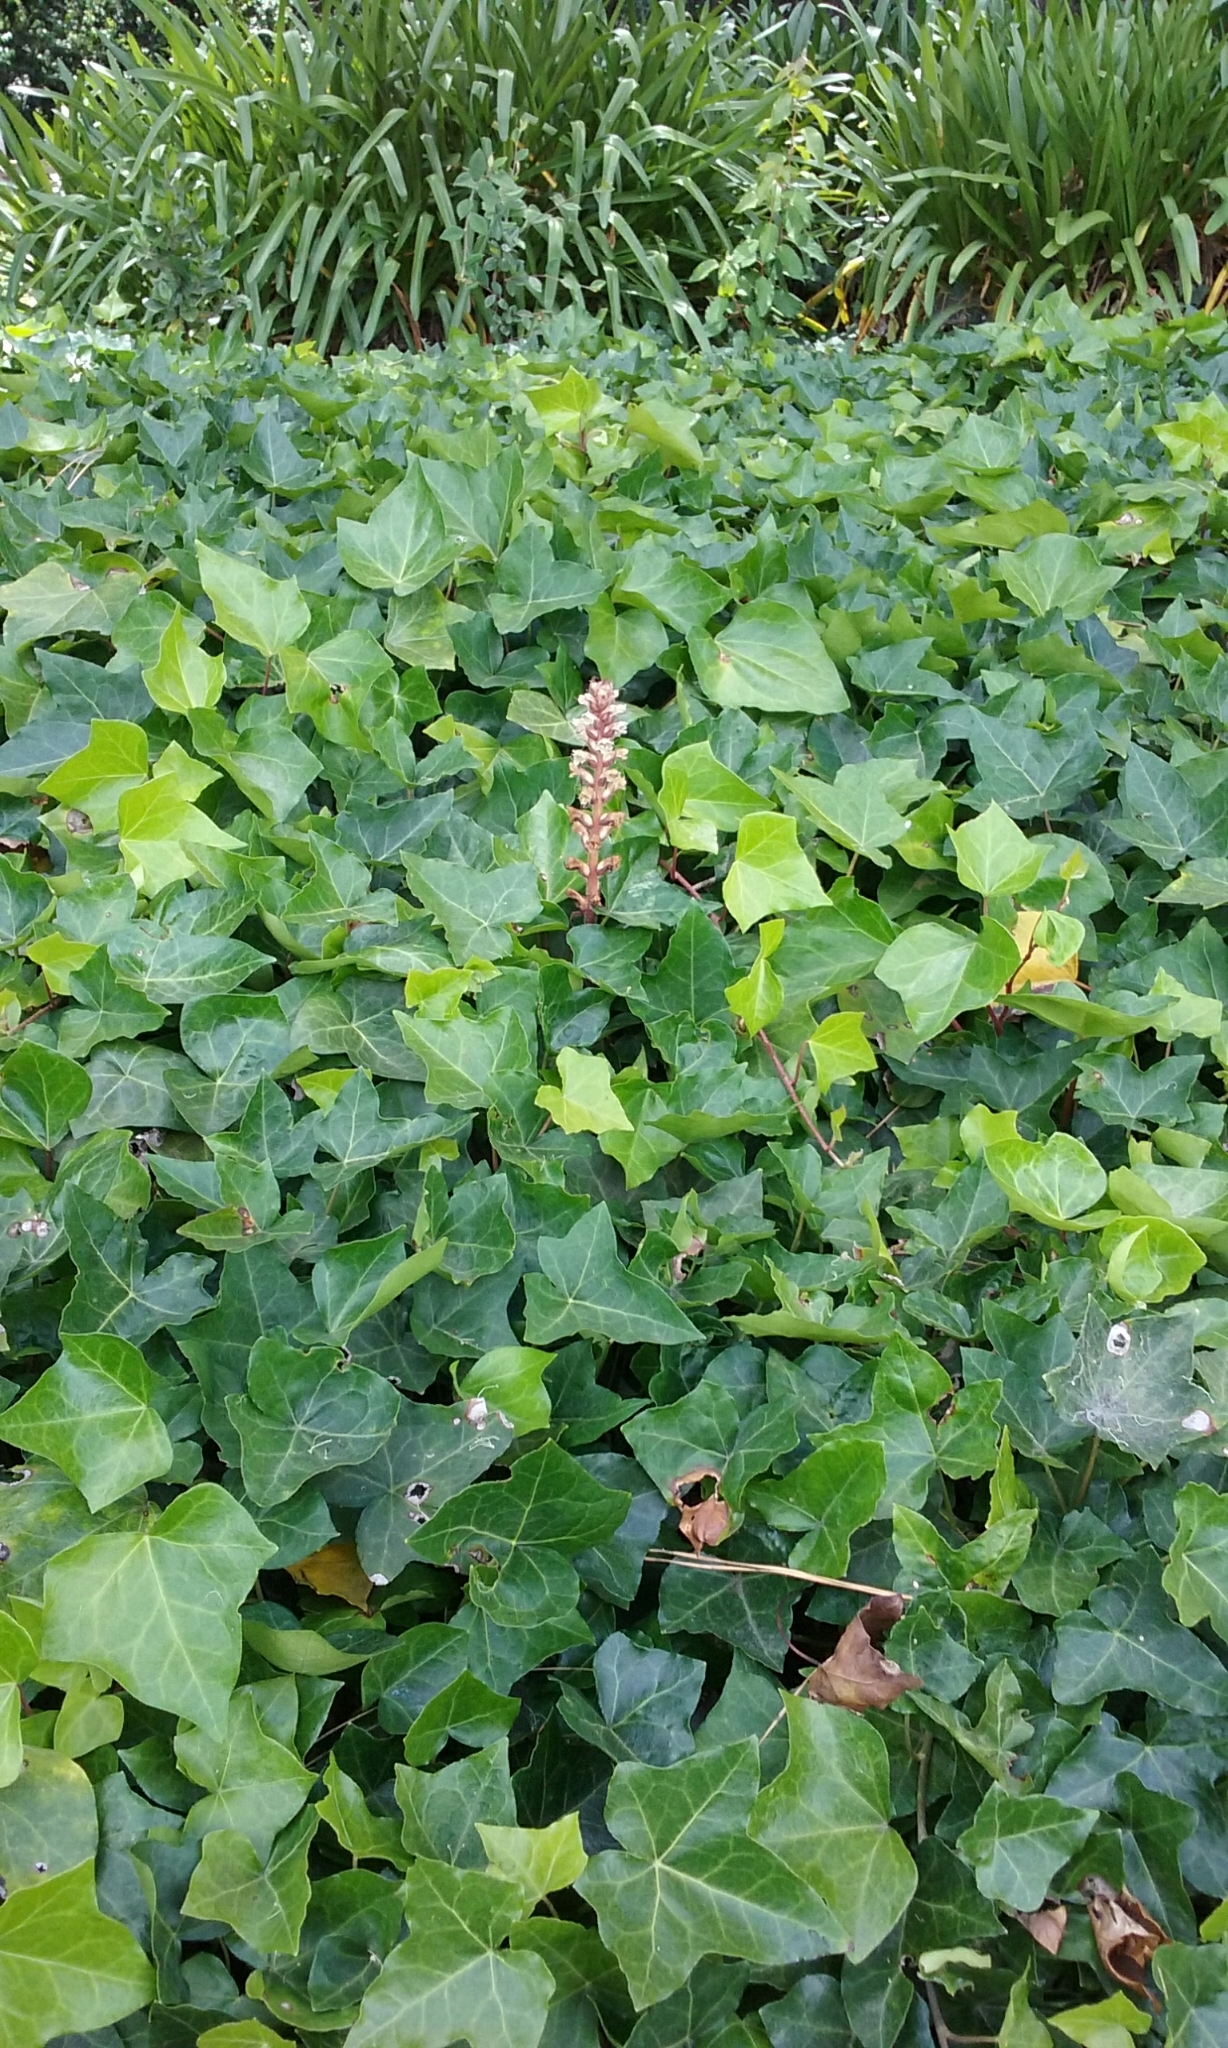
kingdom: Plantae
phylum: Tracheophyta
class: Magnoliopsida
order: Lamiales
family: Orobanchaceae
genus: Orobanche
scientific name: Orobanche hederae
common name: Ivy broomrape
